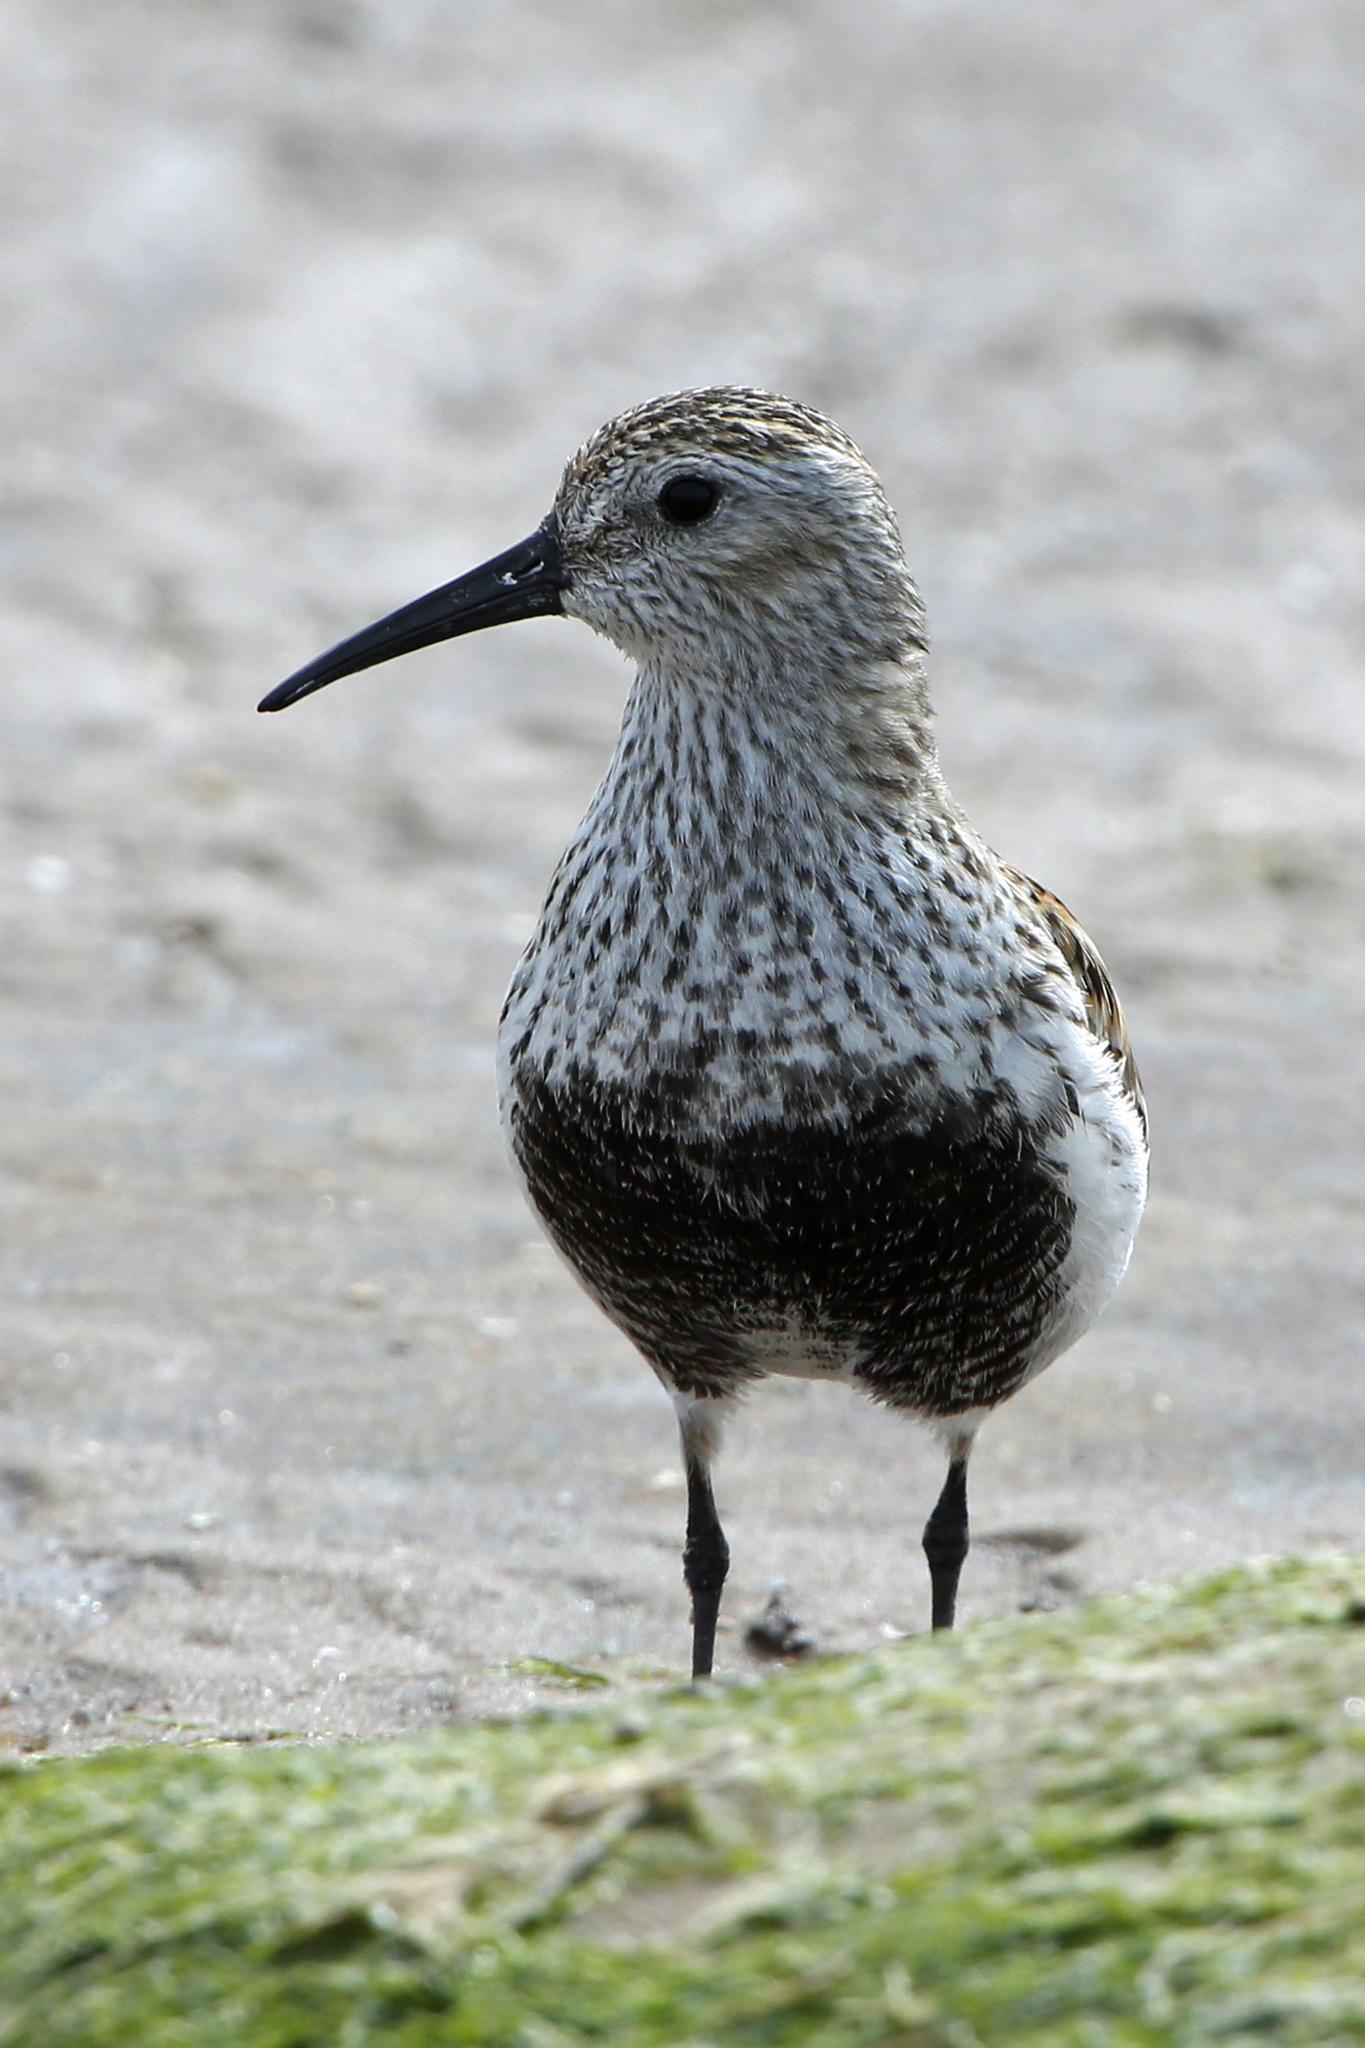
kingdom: Animalia
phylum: Chordata
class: Aves
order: Charadriiformes
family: Scolopacidae
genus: Calidris
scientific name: Calidris alpina
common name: Dunlin
